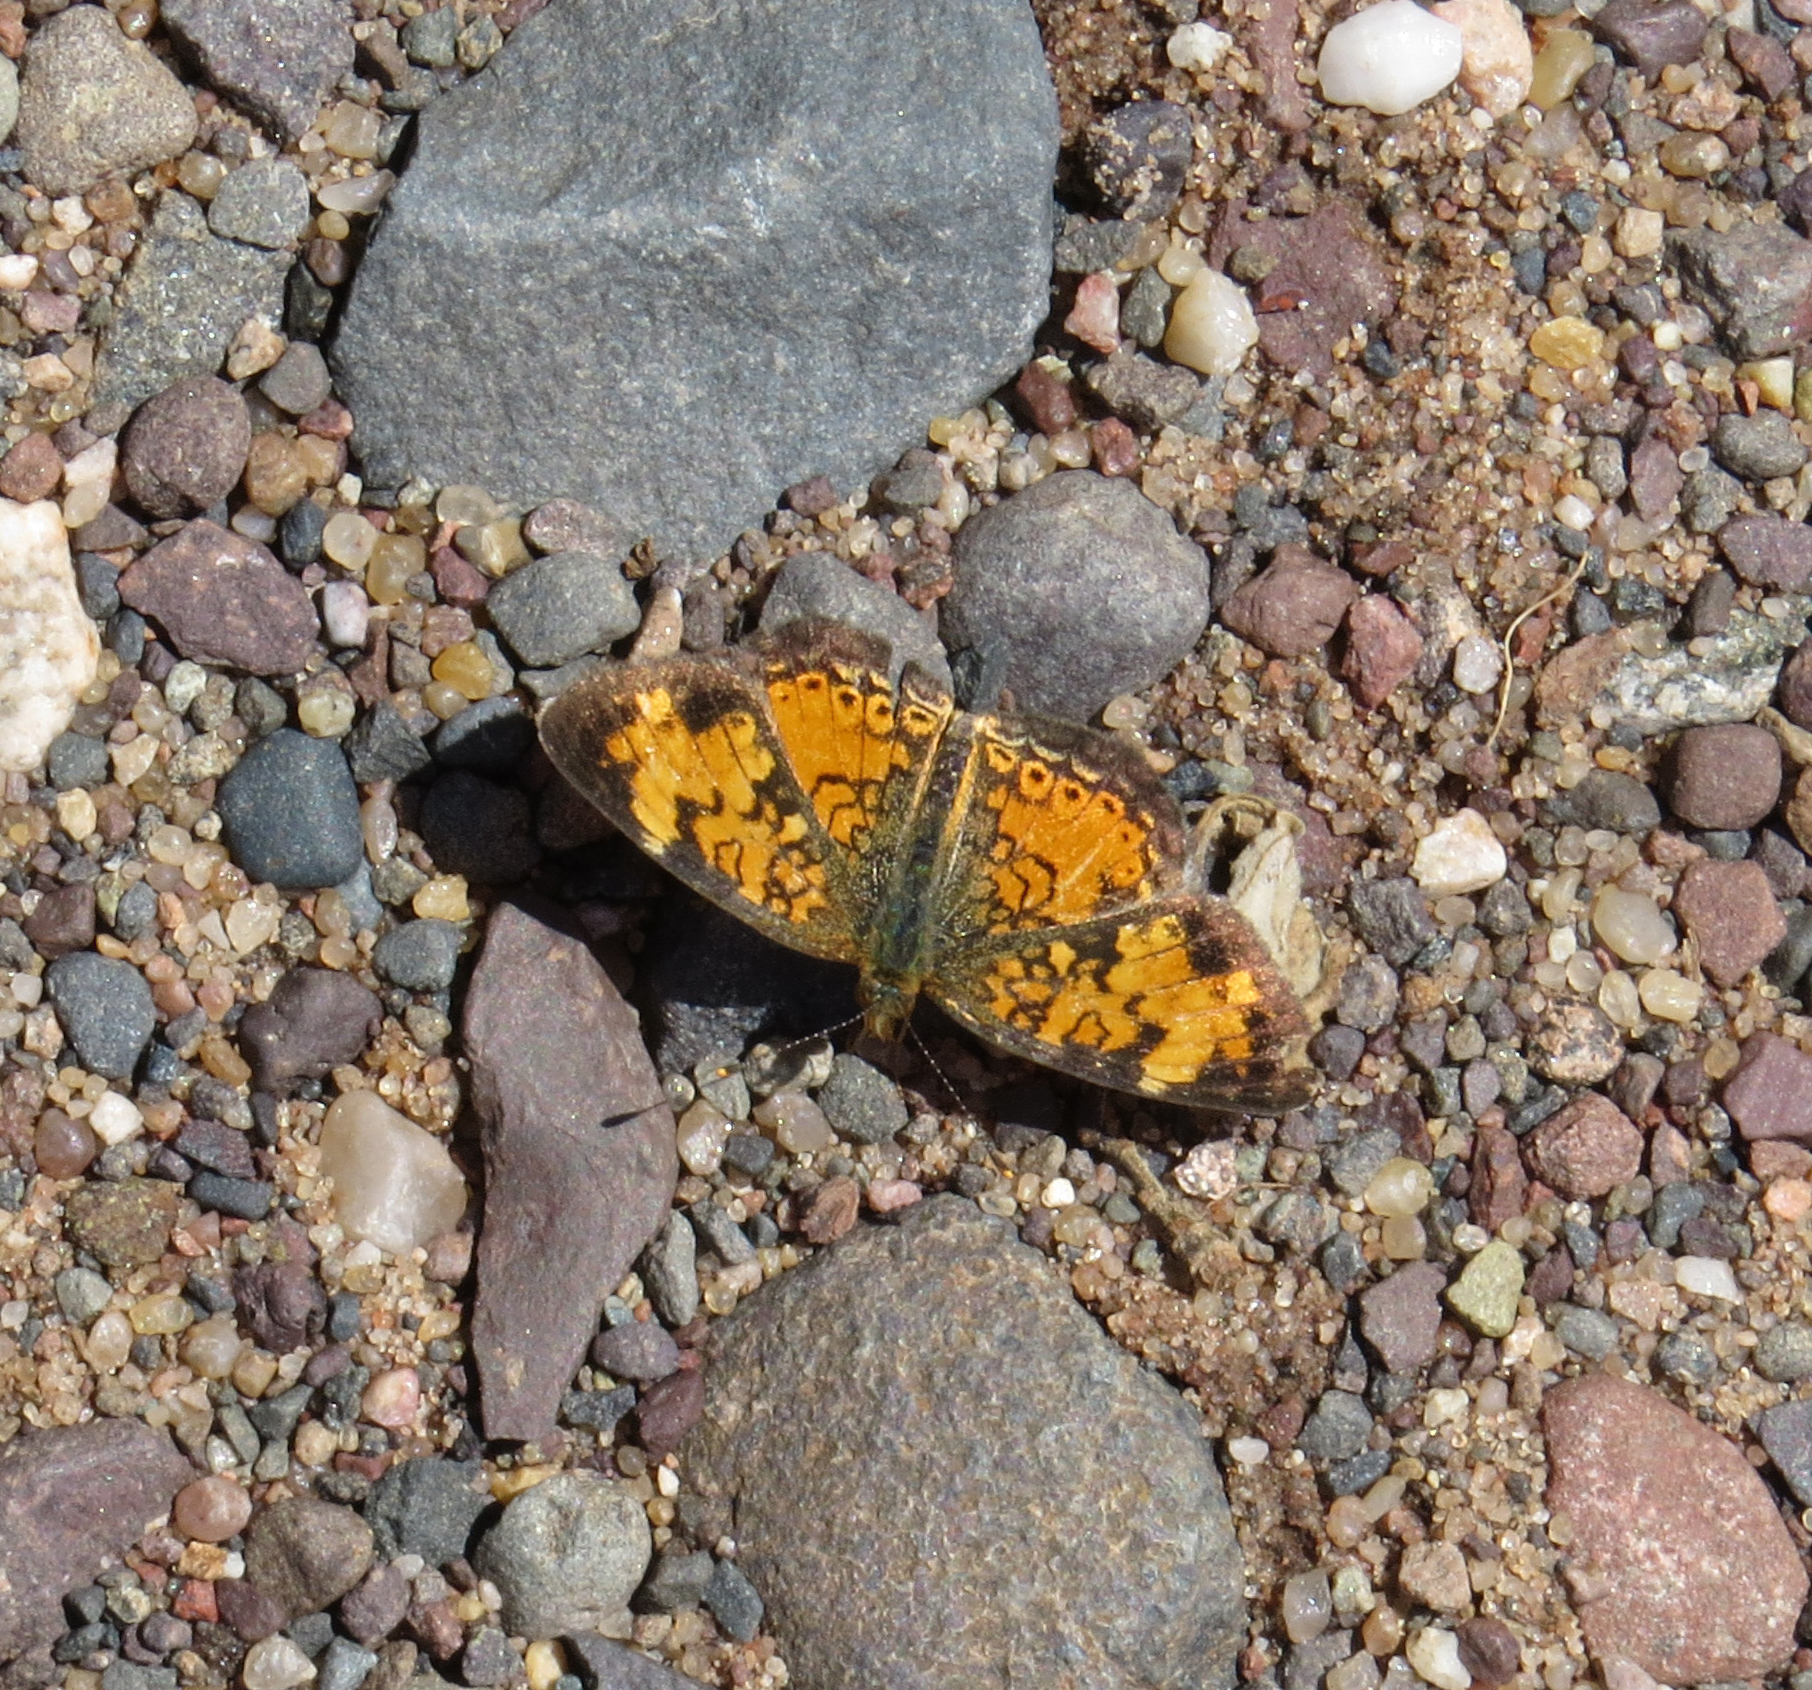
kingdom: Animalia
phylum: Arthropoda
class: Insecta
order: Lepidoptera
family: Nymphalidae
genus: Phyciodes
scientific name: Phyciodes tharos
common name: Pearl crescent
